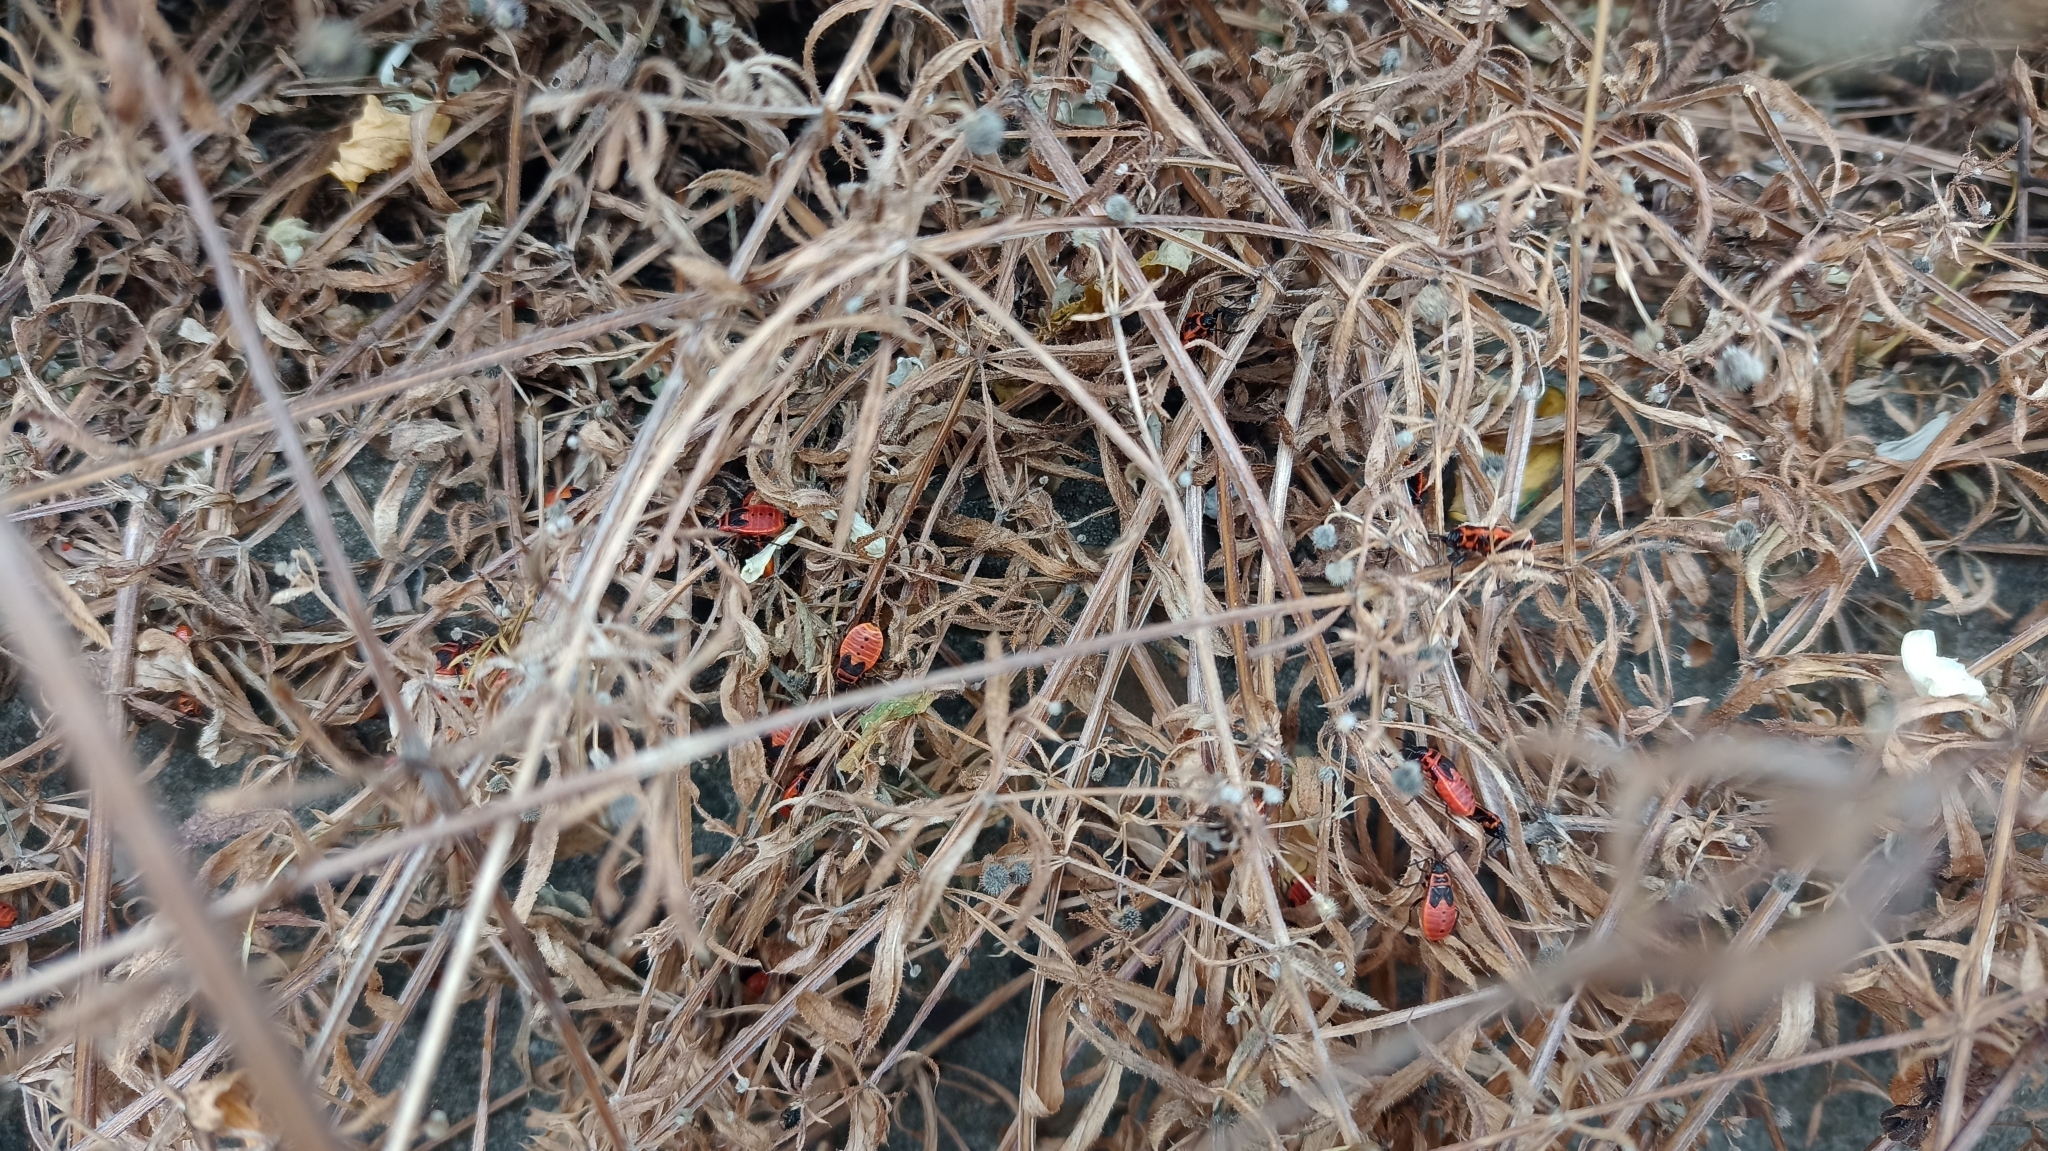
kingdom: Animalia
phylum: Arthropoda
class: Insecta
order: Hemiptera
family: Pyrrhocoridae
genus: Pyrrhocoris
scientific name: Pyrrhocoris apterus
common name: Firebug
